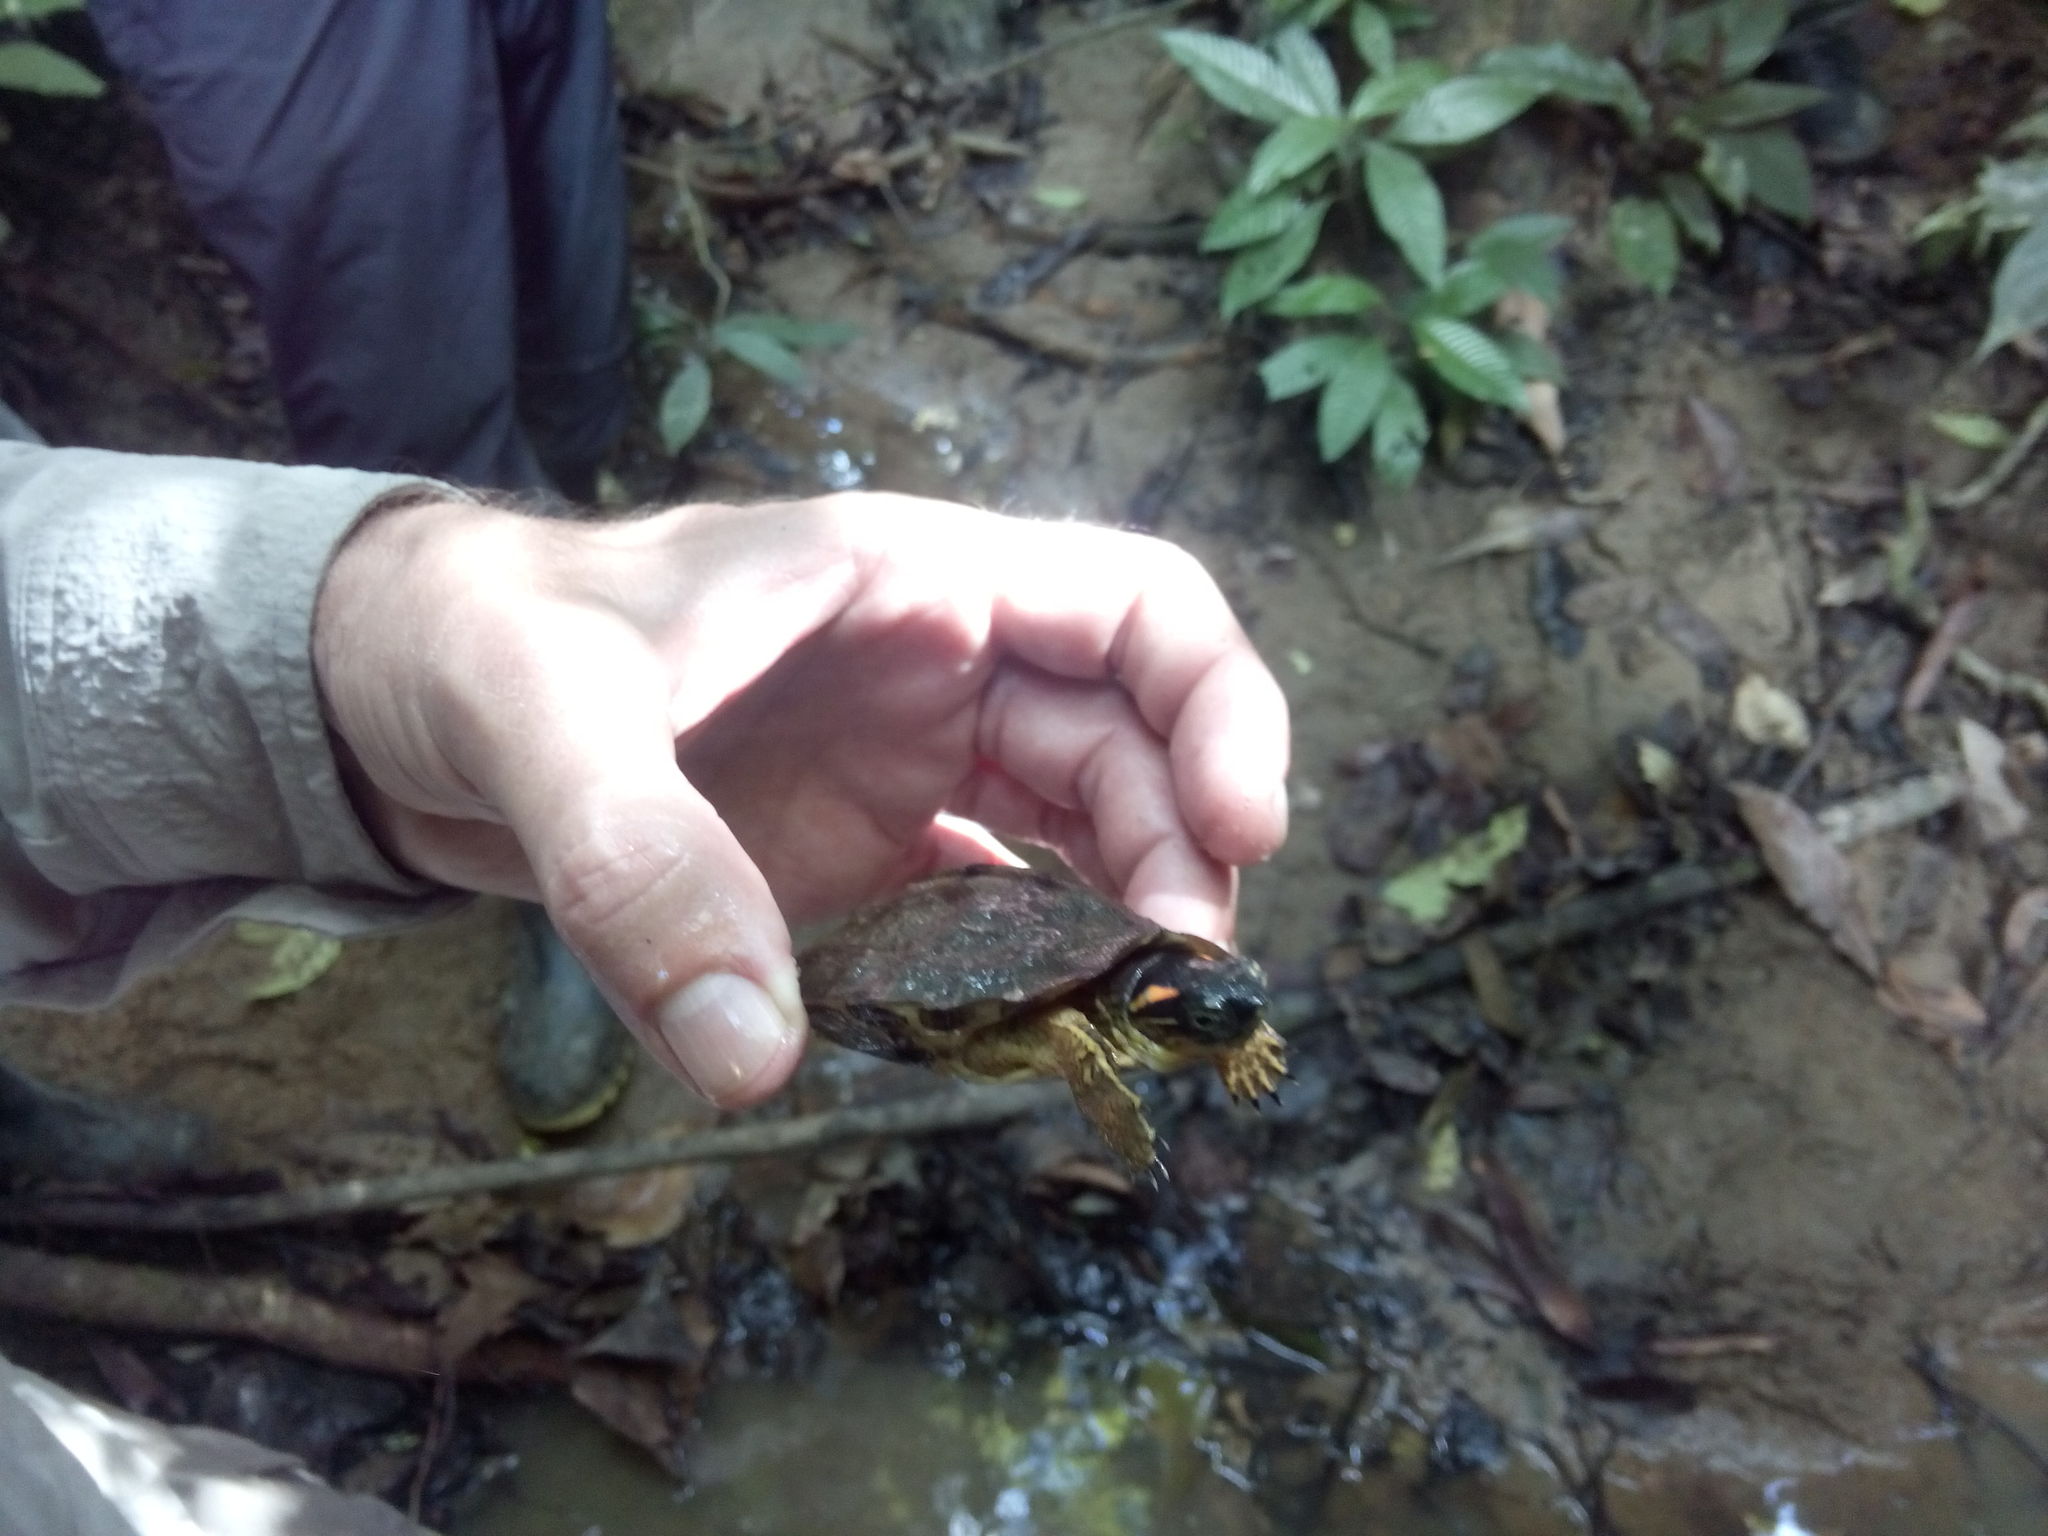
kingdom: Animalia
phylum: Chordata
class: Testudines
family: Geoemydidae
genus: Rhinoclemmys
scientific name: Rhinoclemmys melanosterna
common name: Colombian wood turtle
